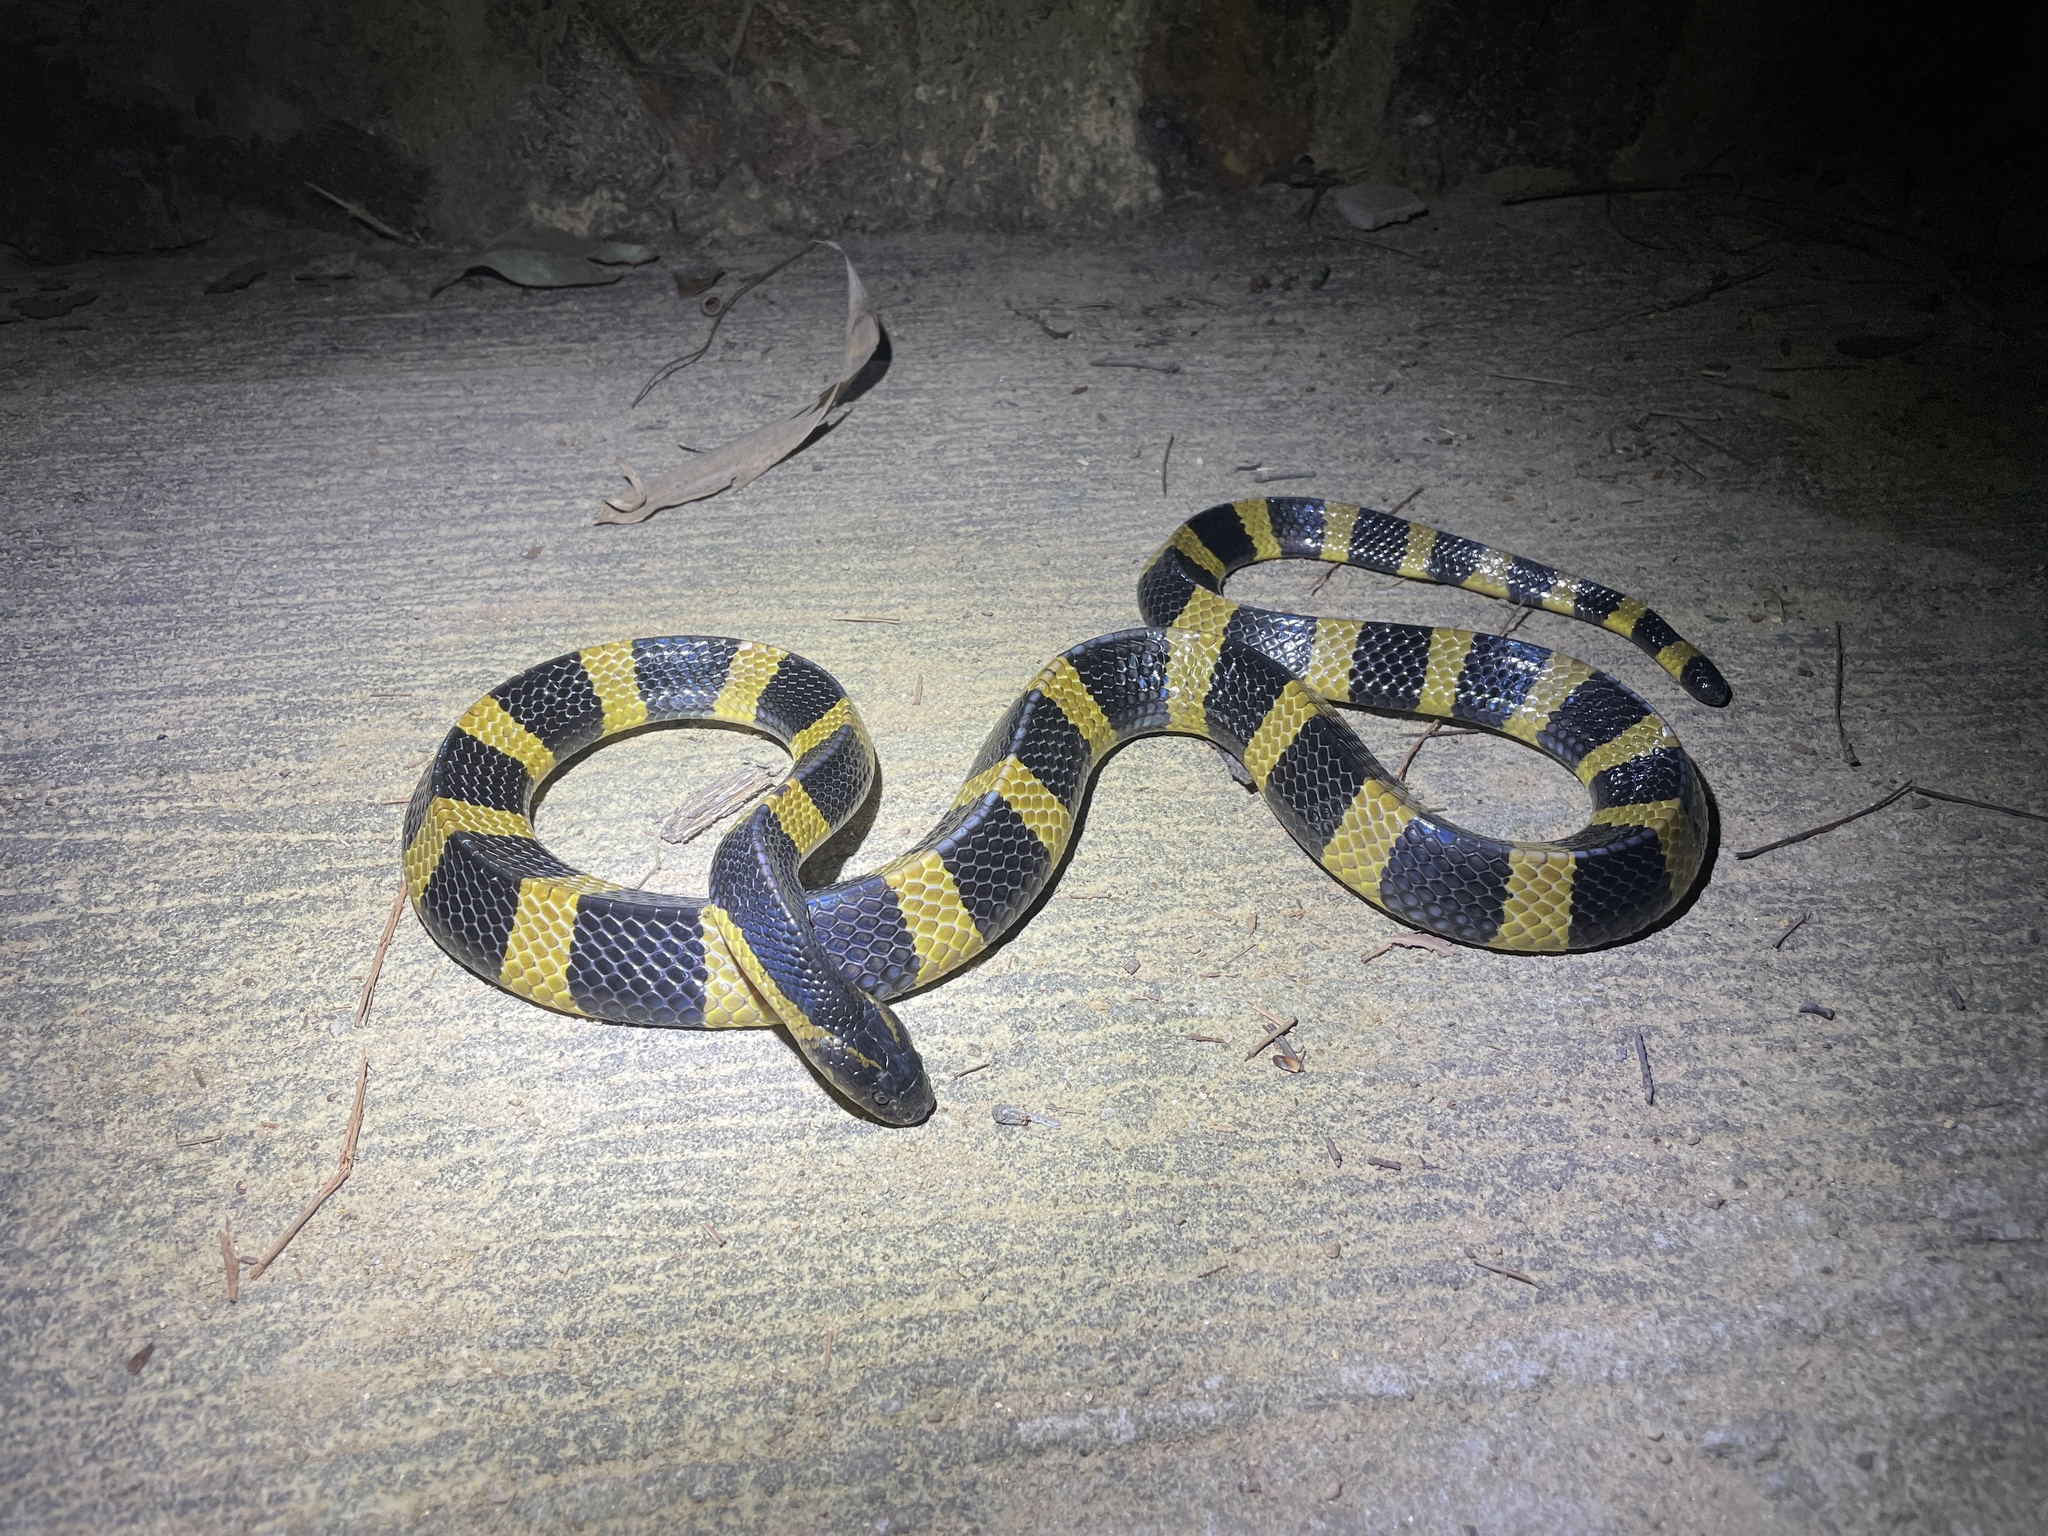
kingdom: Animalia
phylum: Chordata
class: Squamata
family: Elapidae
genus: Bungarus
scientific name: Bungarus fasciatus
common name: Banded krait
